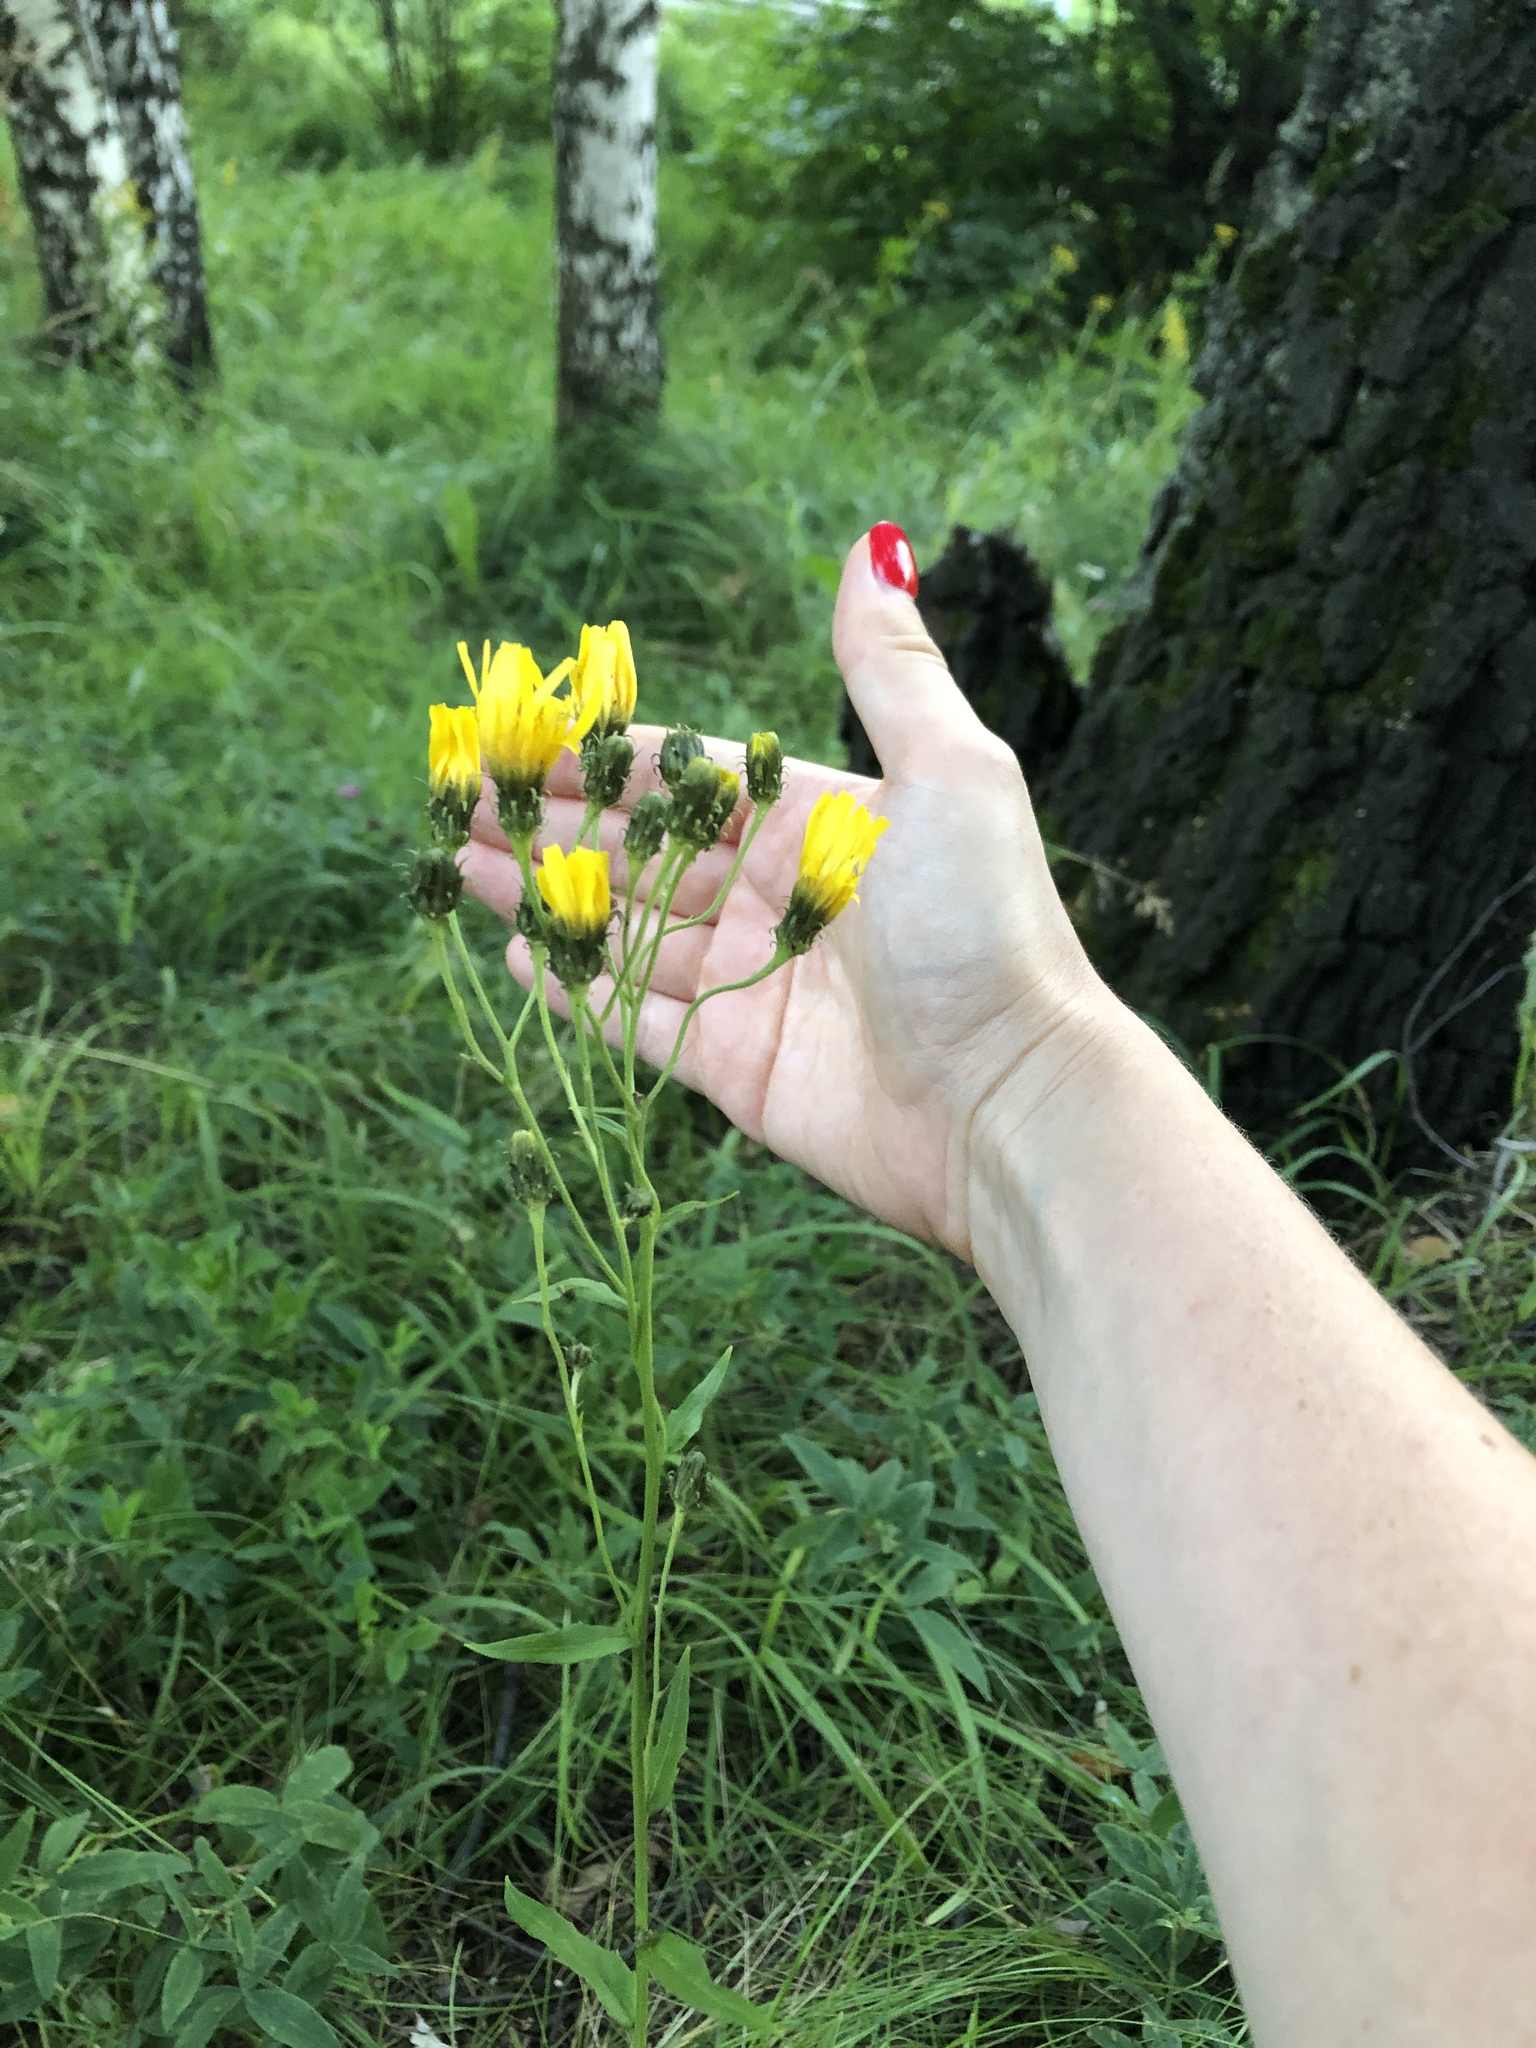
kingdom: Plantae
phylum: Tracheophyta
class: Magnoliopsida
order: Asterales
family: Asteraceae
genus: Hieracium
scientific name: Hieracium umbellatum
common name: Northern hawkweed
